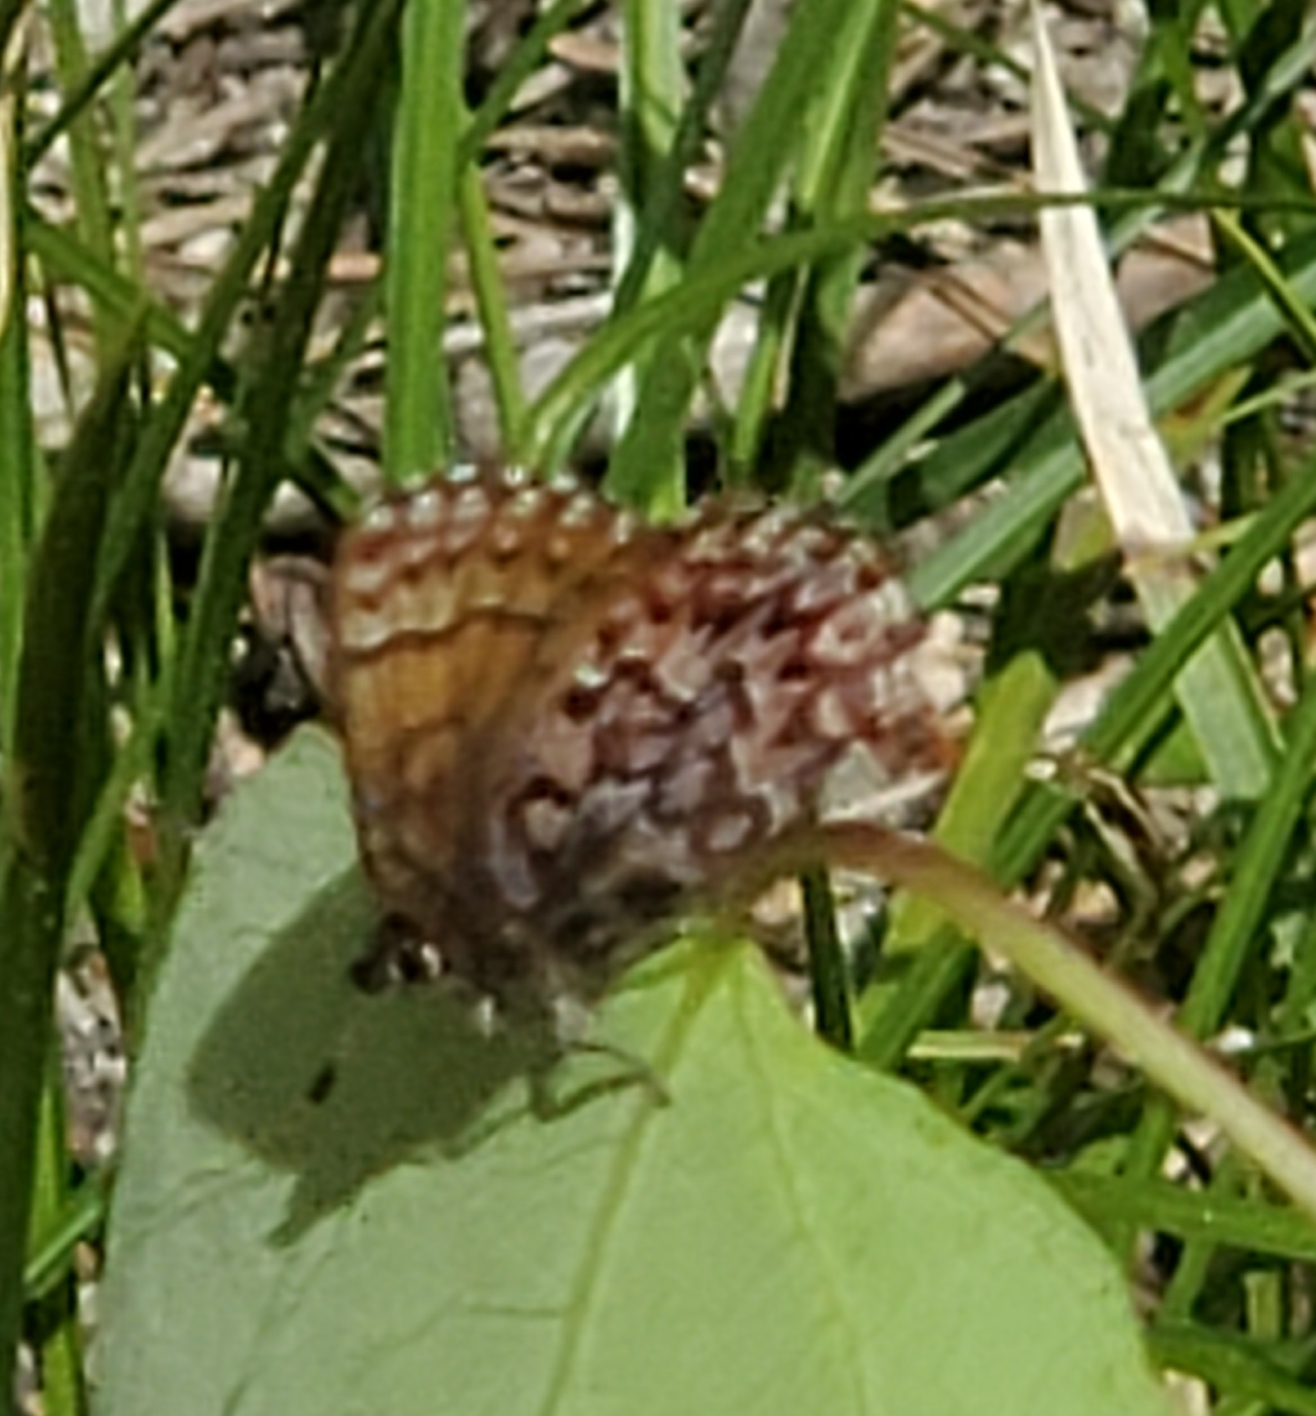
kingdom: Animalia
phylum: Arthropoda
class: Insecta
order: Lepidoptera
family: Lycaenidae
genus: Incisalia
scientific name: Incisalia eryphon
